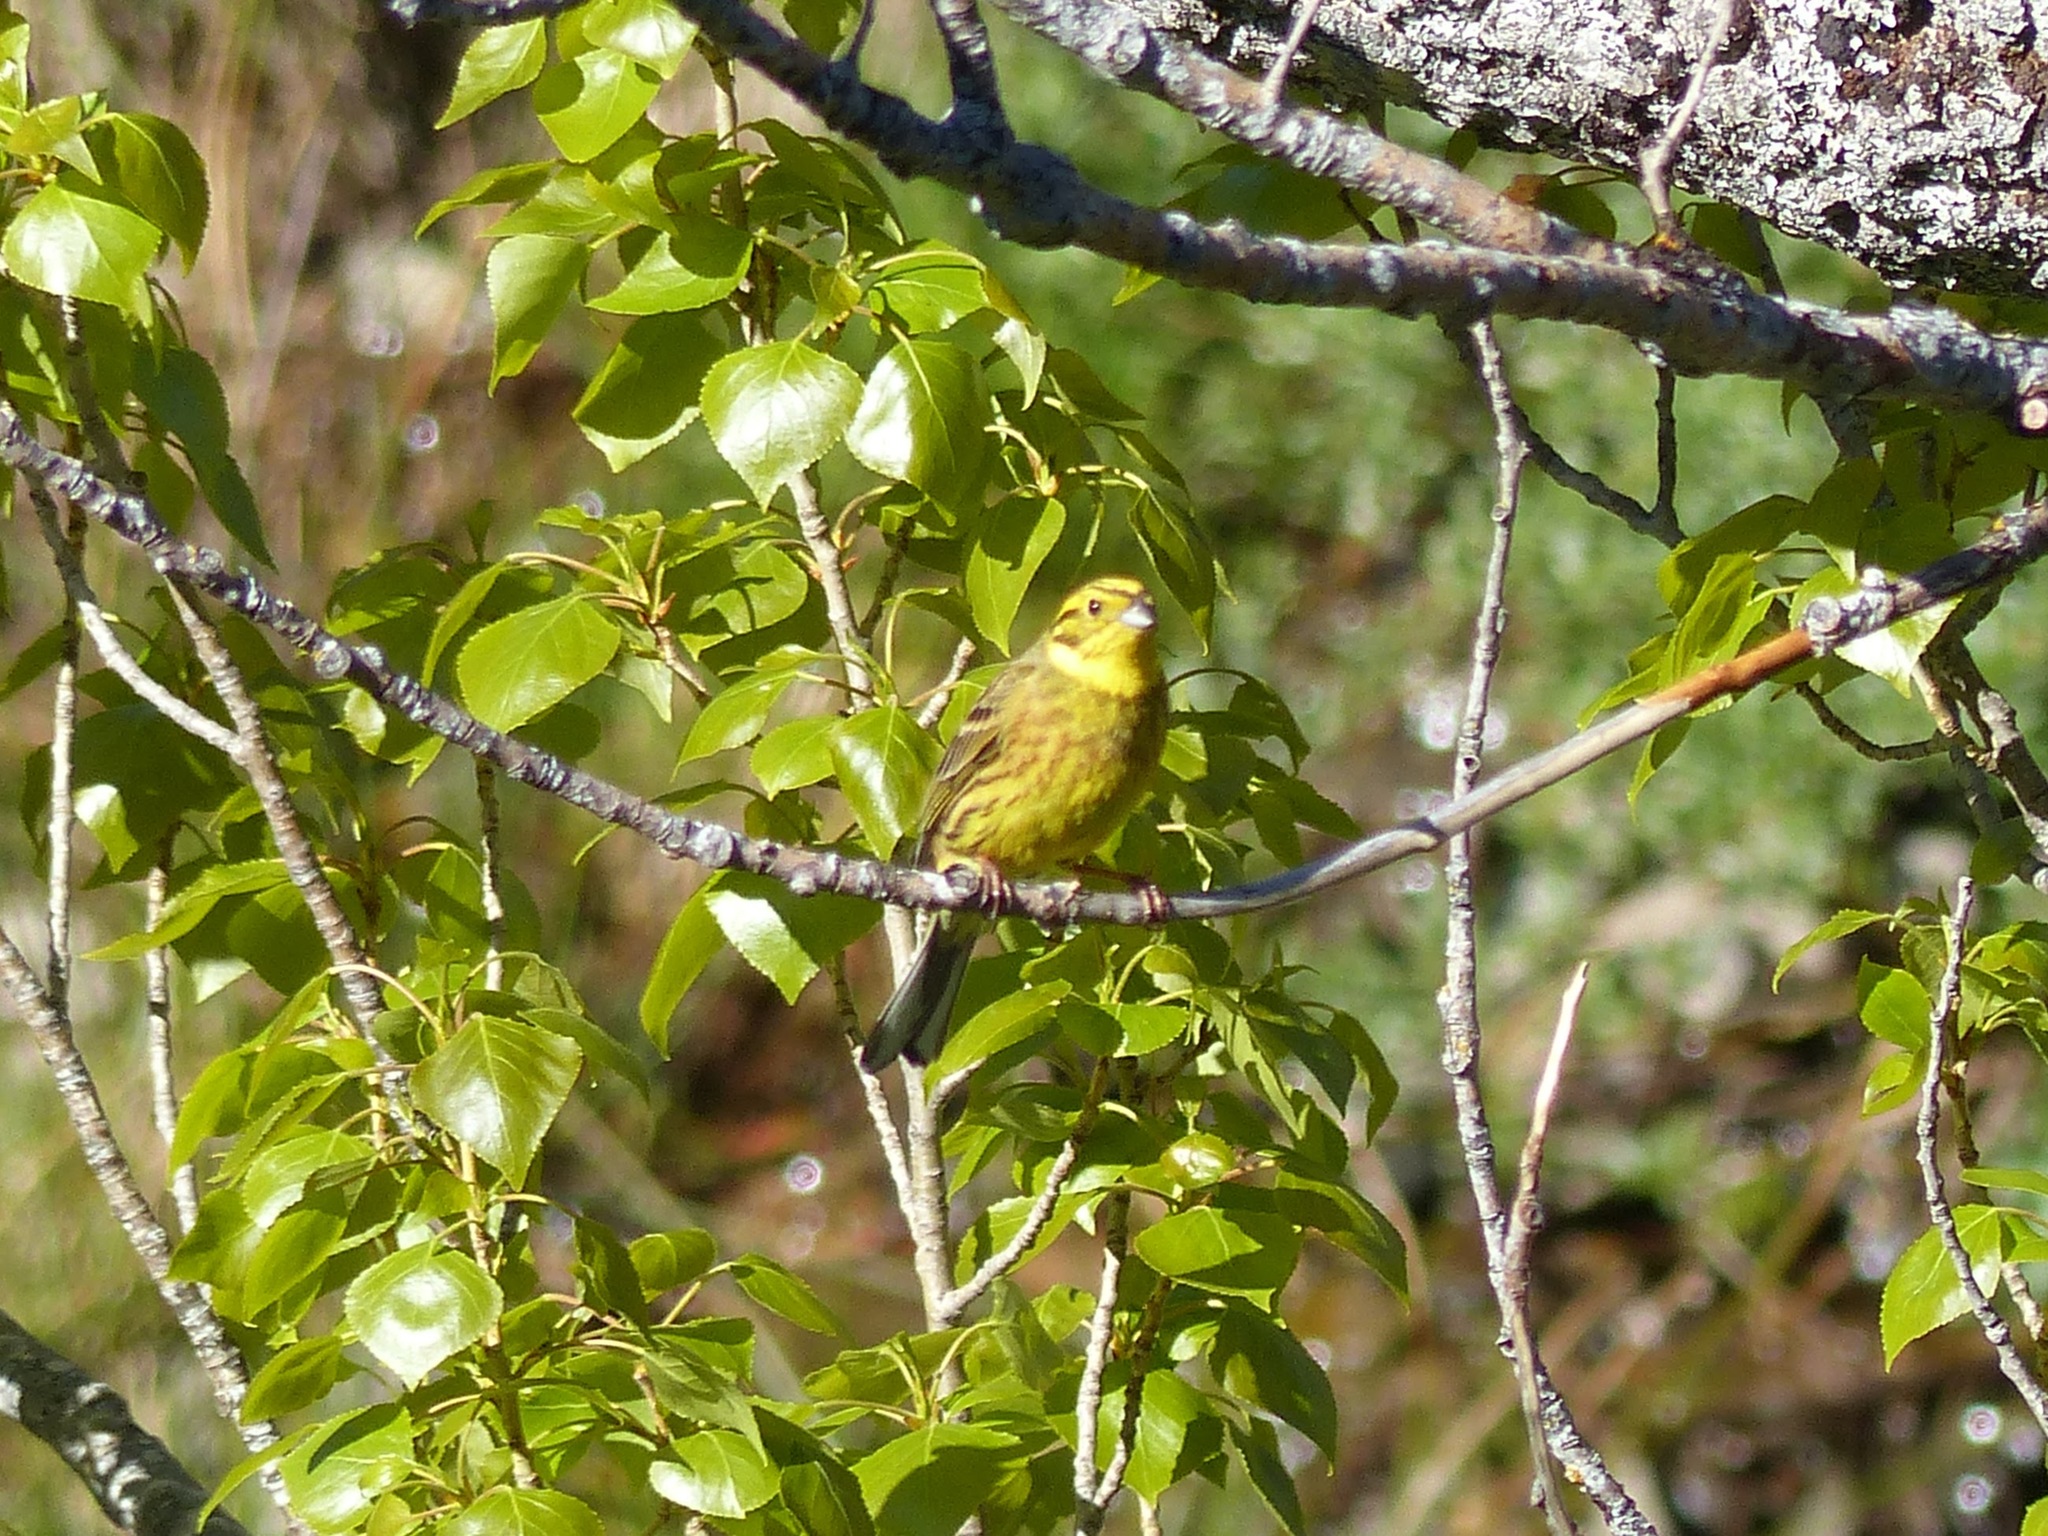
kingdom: Animalia
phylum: Chordata
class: Aves
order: Passeriformes
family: Emberizidae
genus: Emberiza
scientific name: Emberiza citrinella
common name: Yellowhammer
